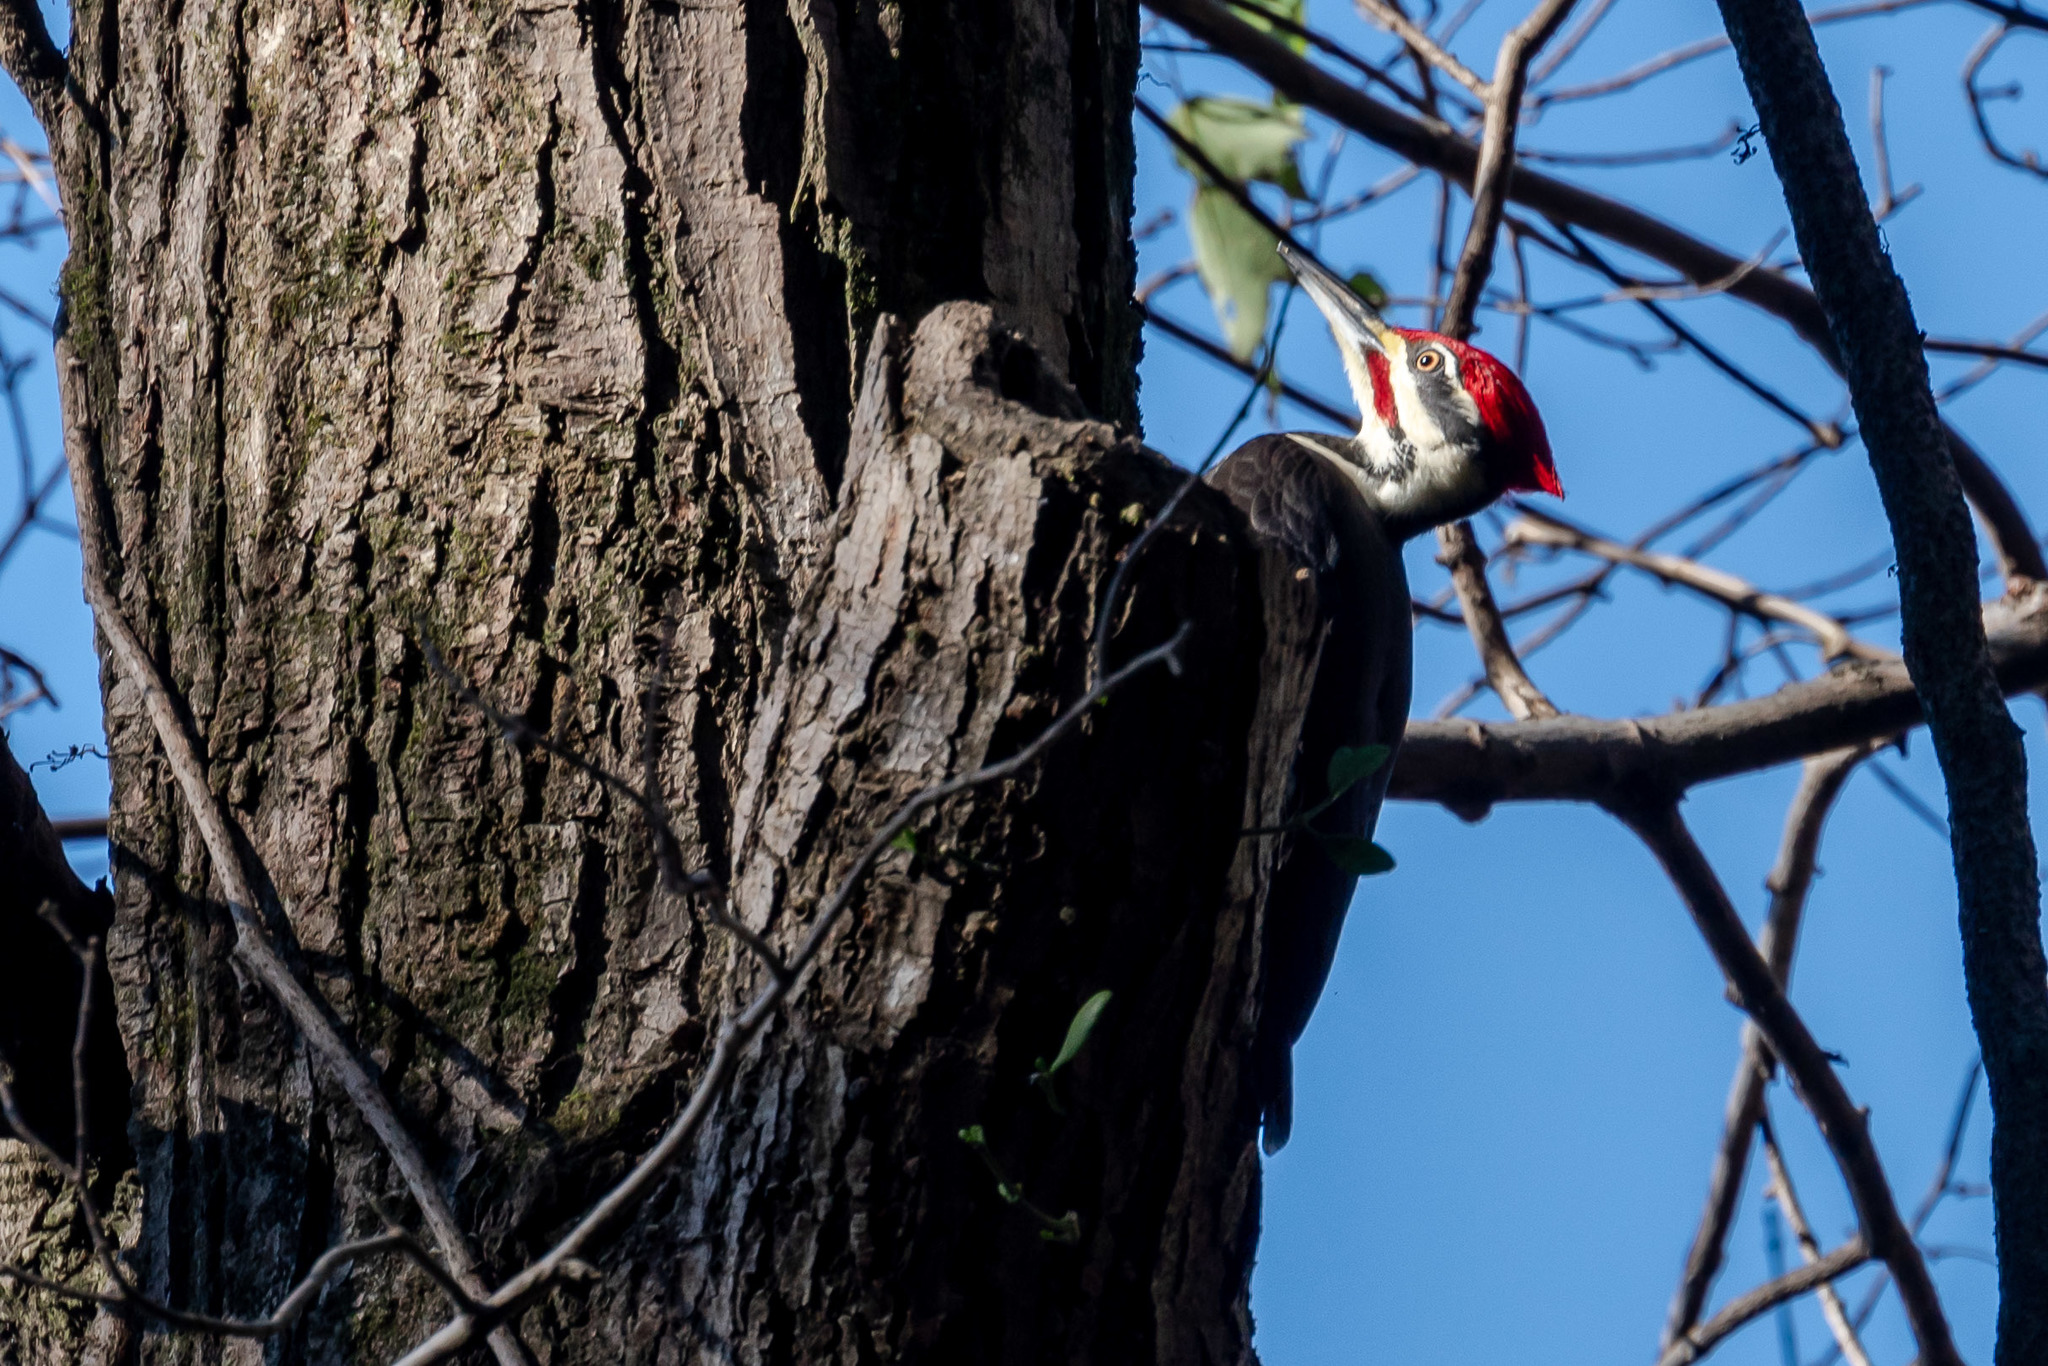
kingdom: Animalia
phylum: Chordata
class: Aves
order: Piciformes
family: Picidae
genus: Dryocopus
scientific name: Dryocopus pileatus
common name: Pileated woodpecker
